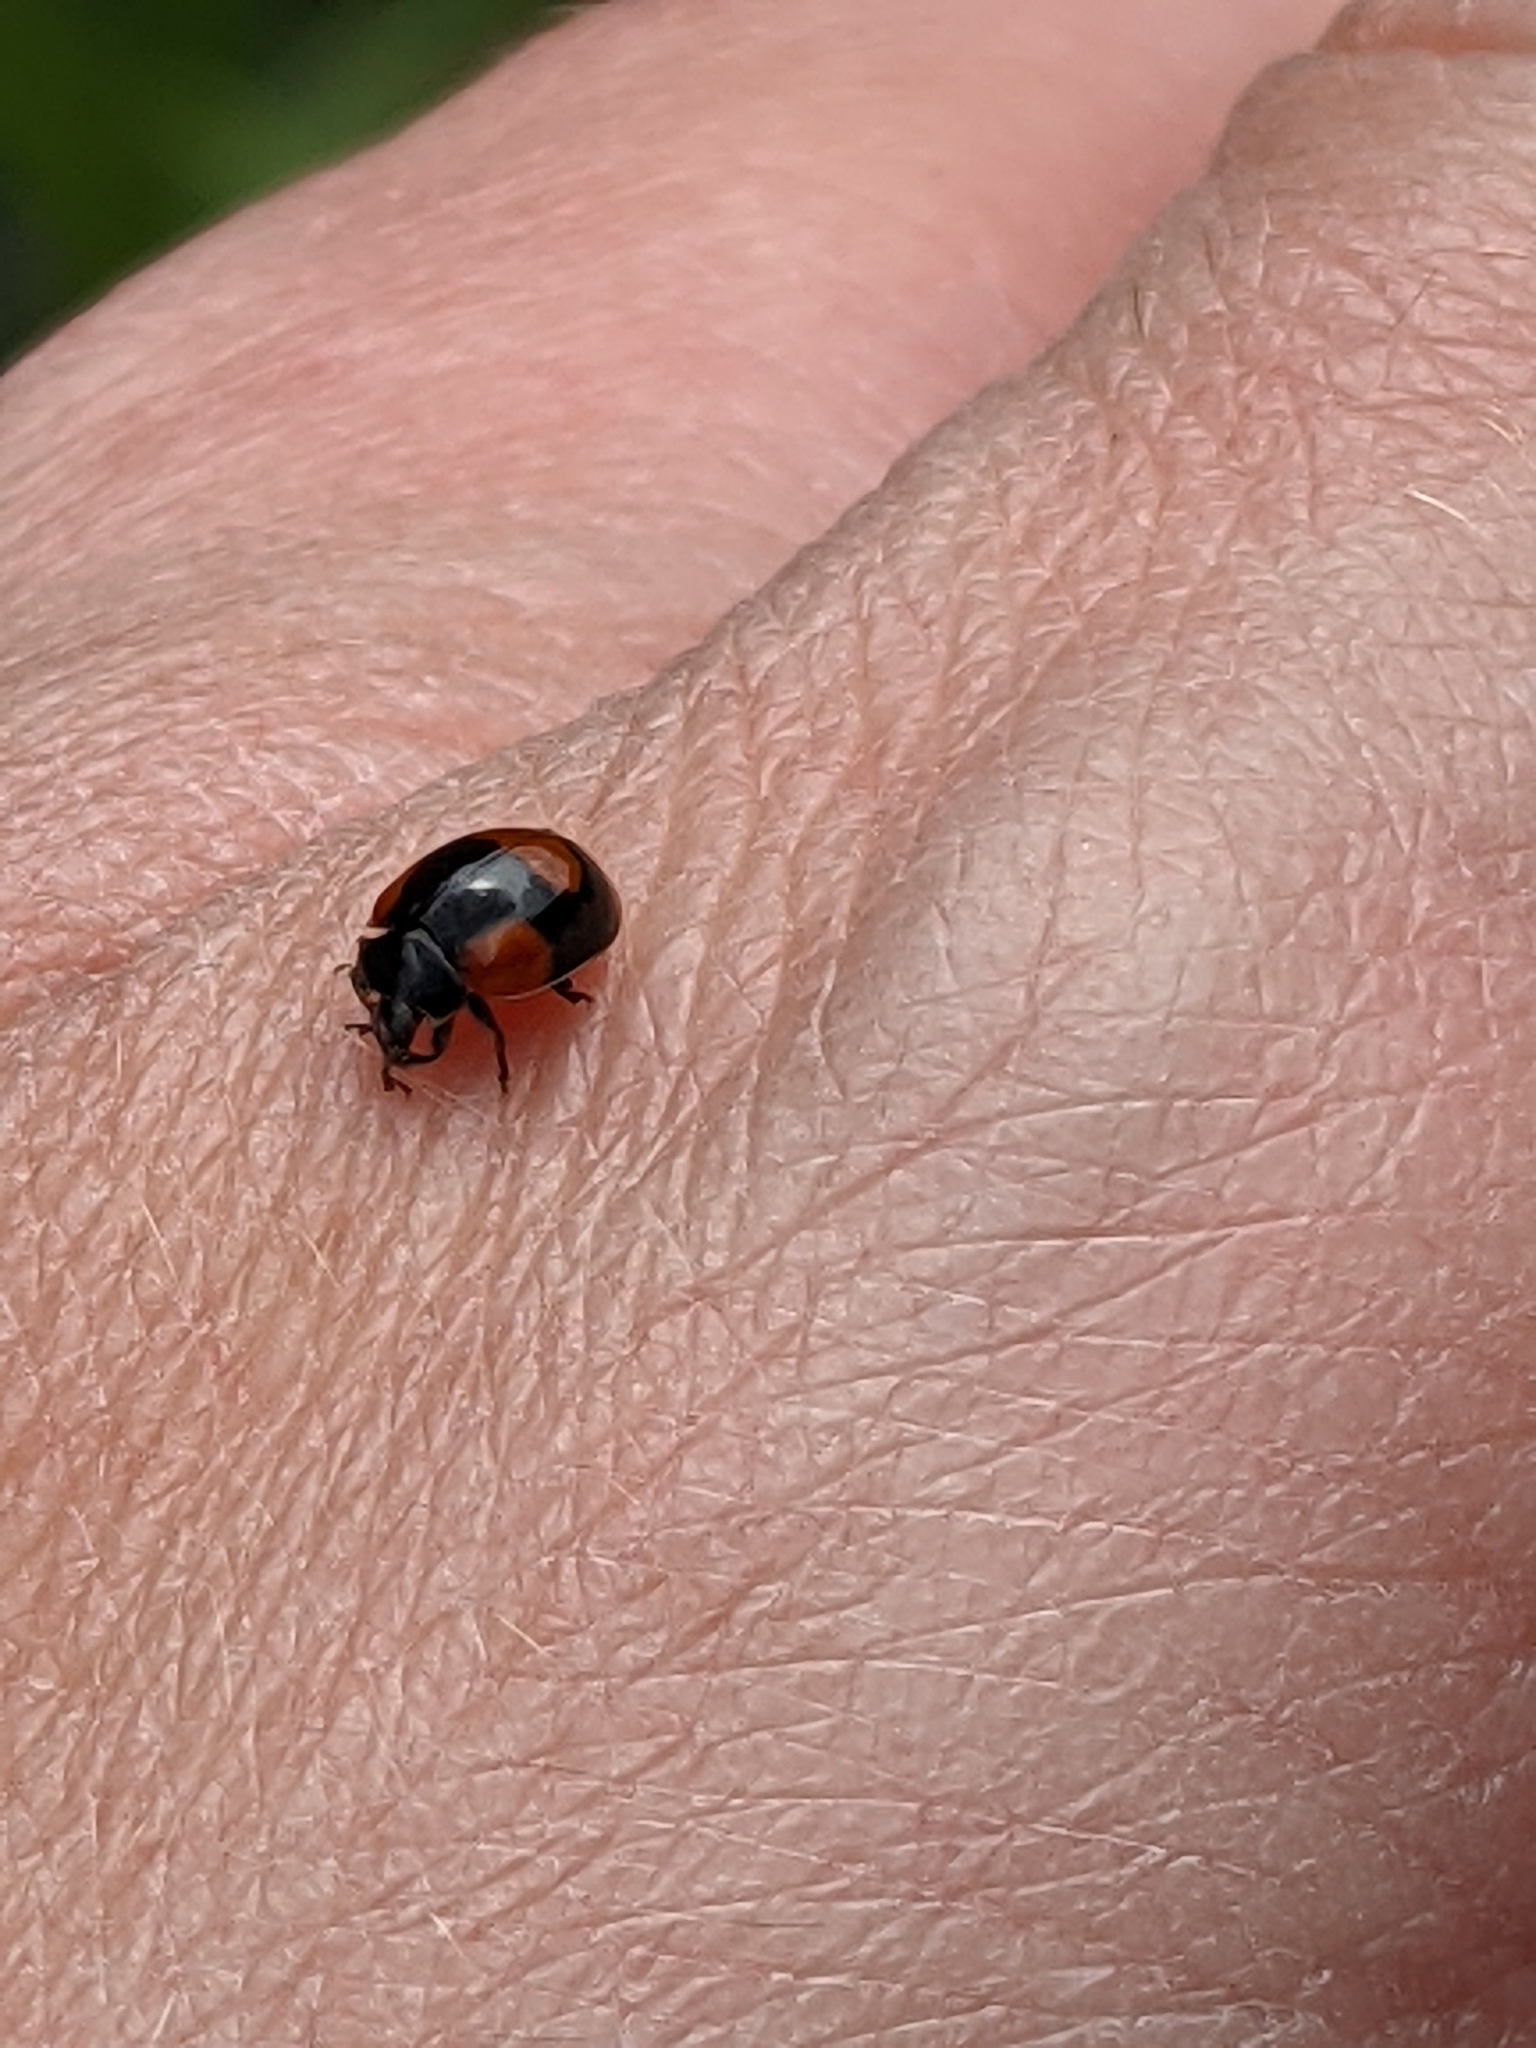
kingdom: Animalia
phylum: Arthropoda
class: Insecta
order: Coleoptera
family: Coccinellidae
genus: Adalia
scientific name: Adalia bipunctata
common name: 2-spot ladybird
